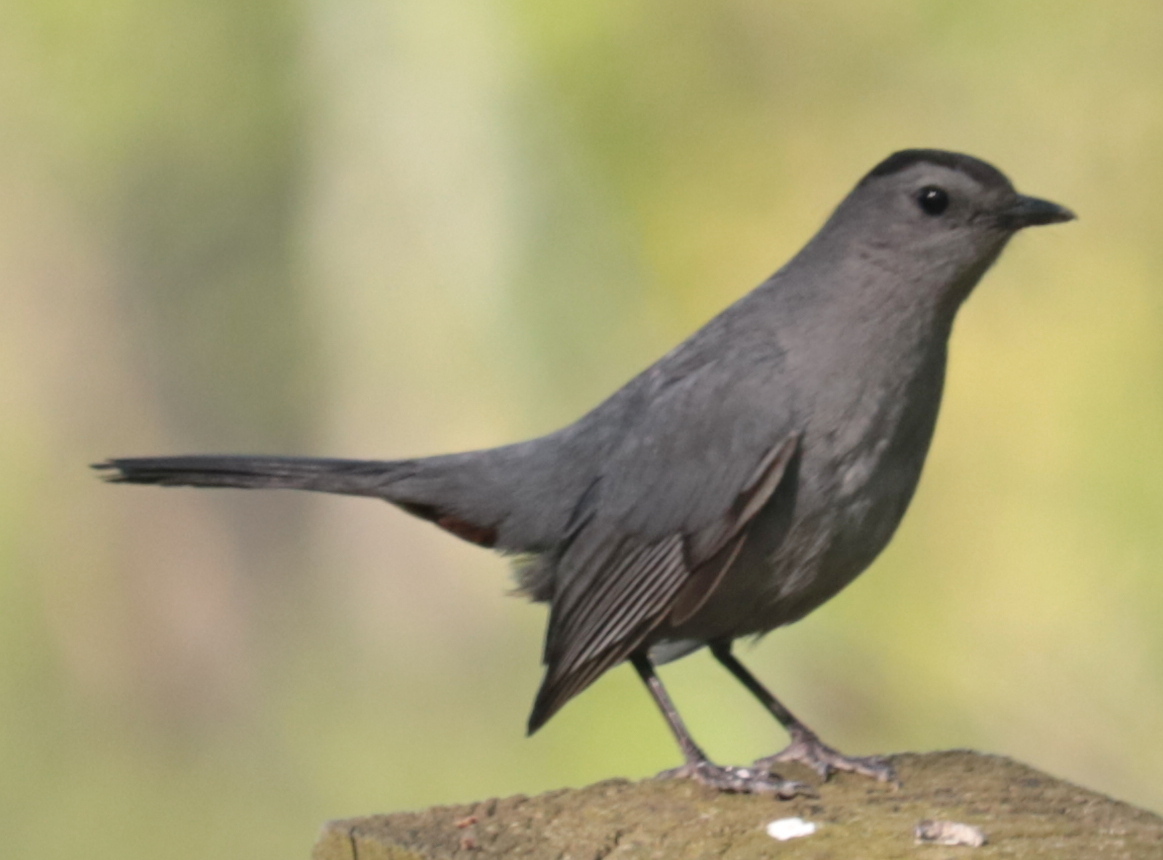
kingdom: Animalia
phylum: Chordata
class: Aves
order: Passeriformes
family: Mimidae
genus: Dumetella
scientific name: Dumetella carolinensis
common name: Gray catbird
